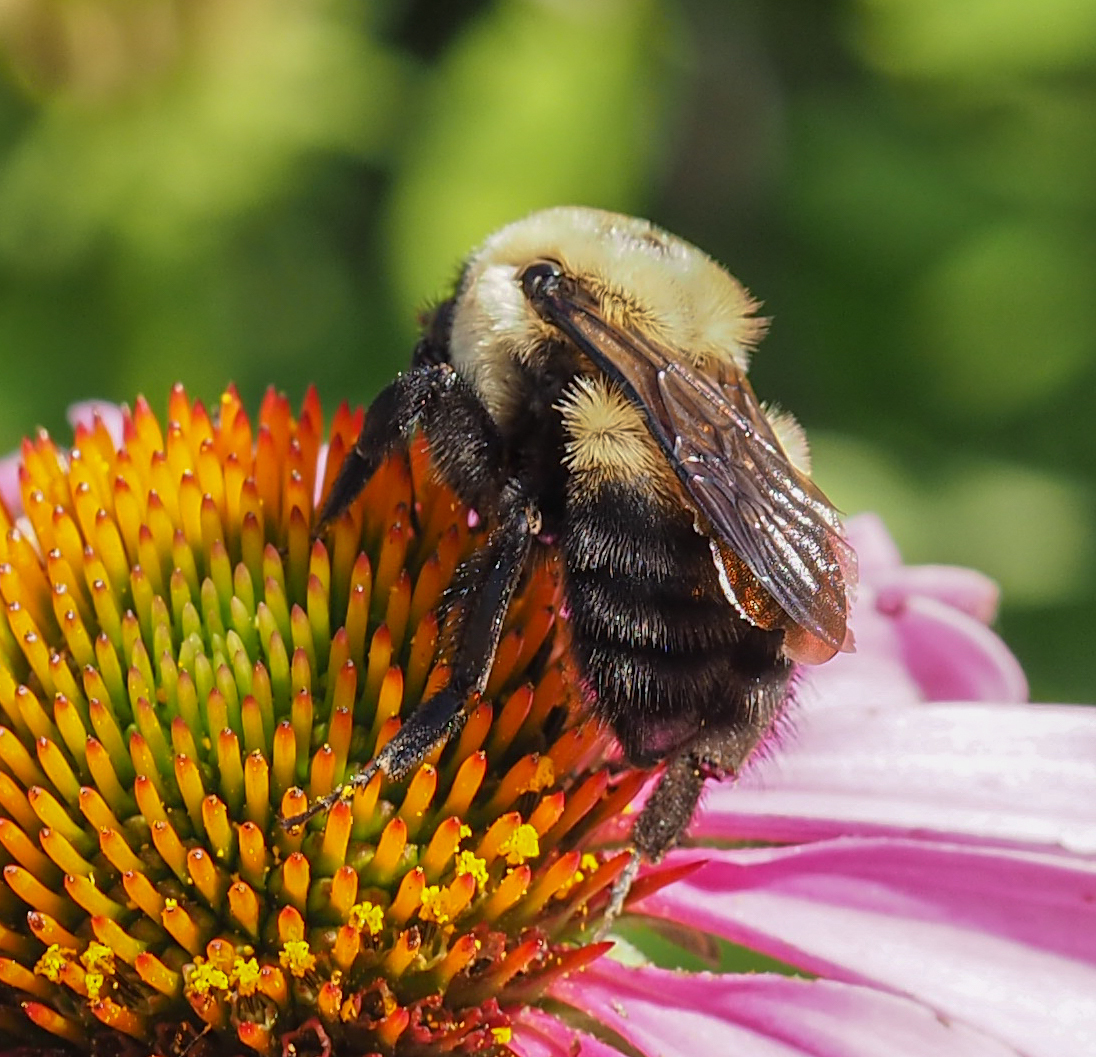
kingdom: Animalia
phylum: Arthropoda
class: Insecta
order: Hymenoptera
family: Apidae
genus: Bombus
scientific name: Bombus griseocollis
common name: Brown-belted bumble bee
